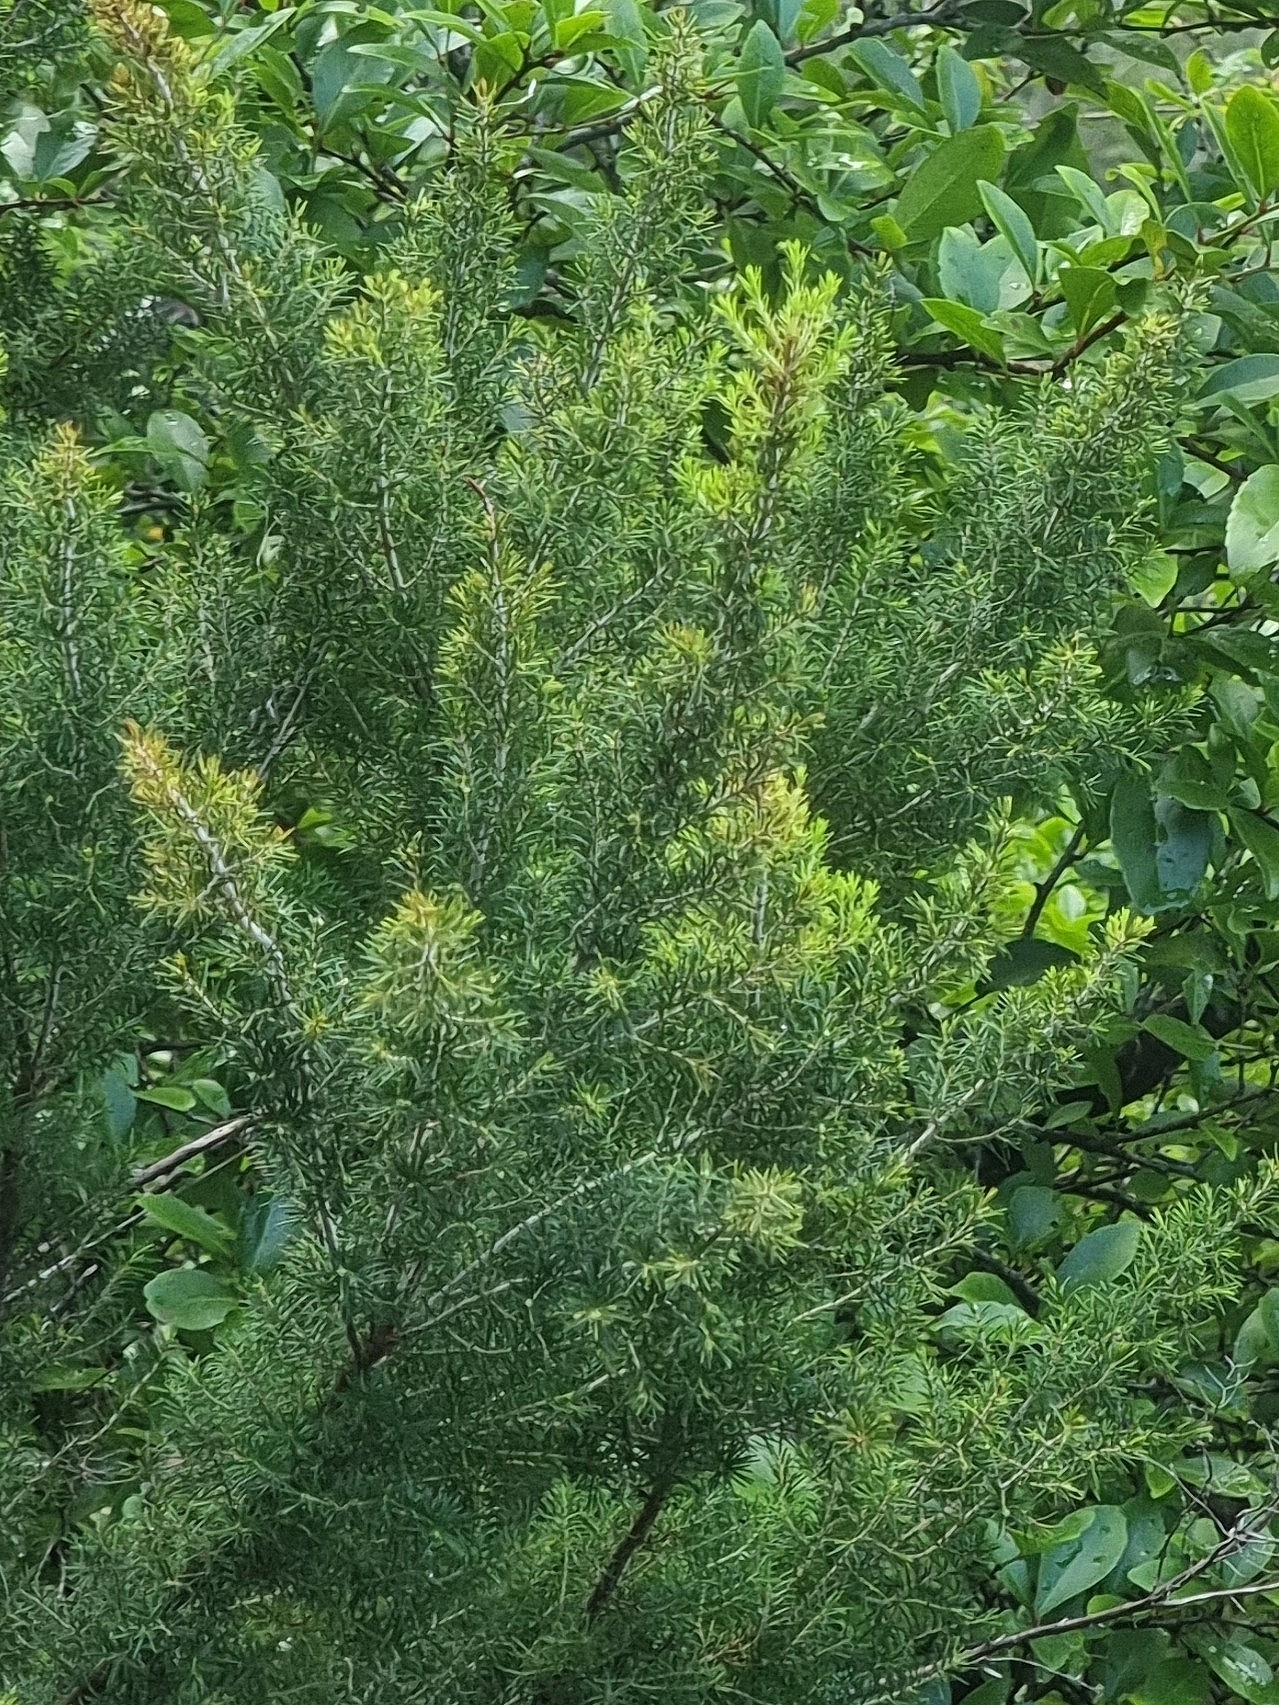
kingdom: Plantae
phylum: Tracheophyta
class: Magnoliopsida
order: Ericales
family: Ericaceae
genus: Erica
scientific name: Erica canariensis
